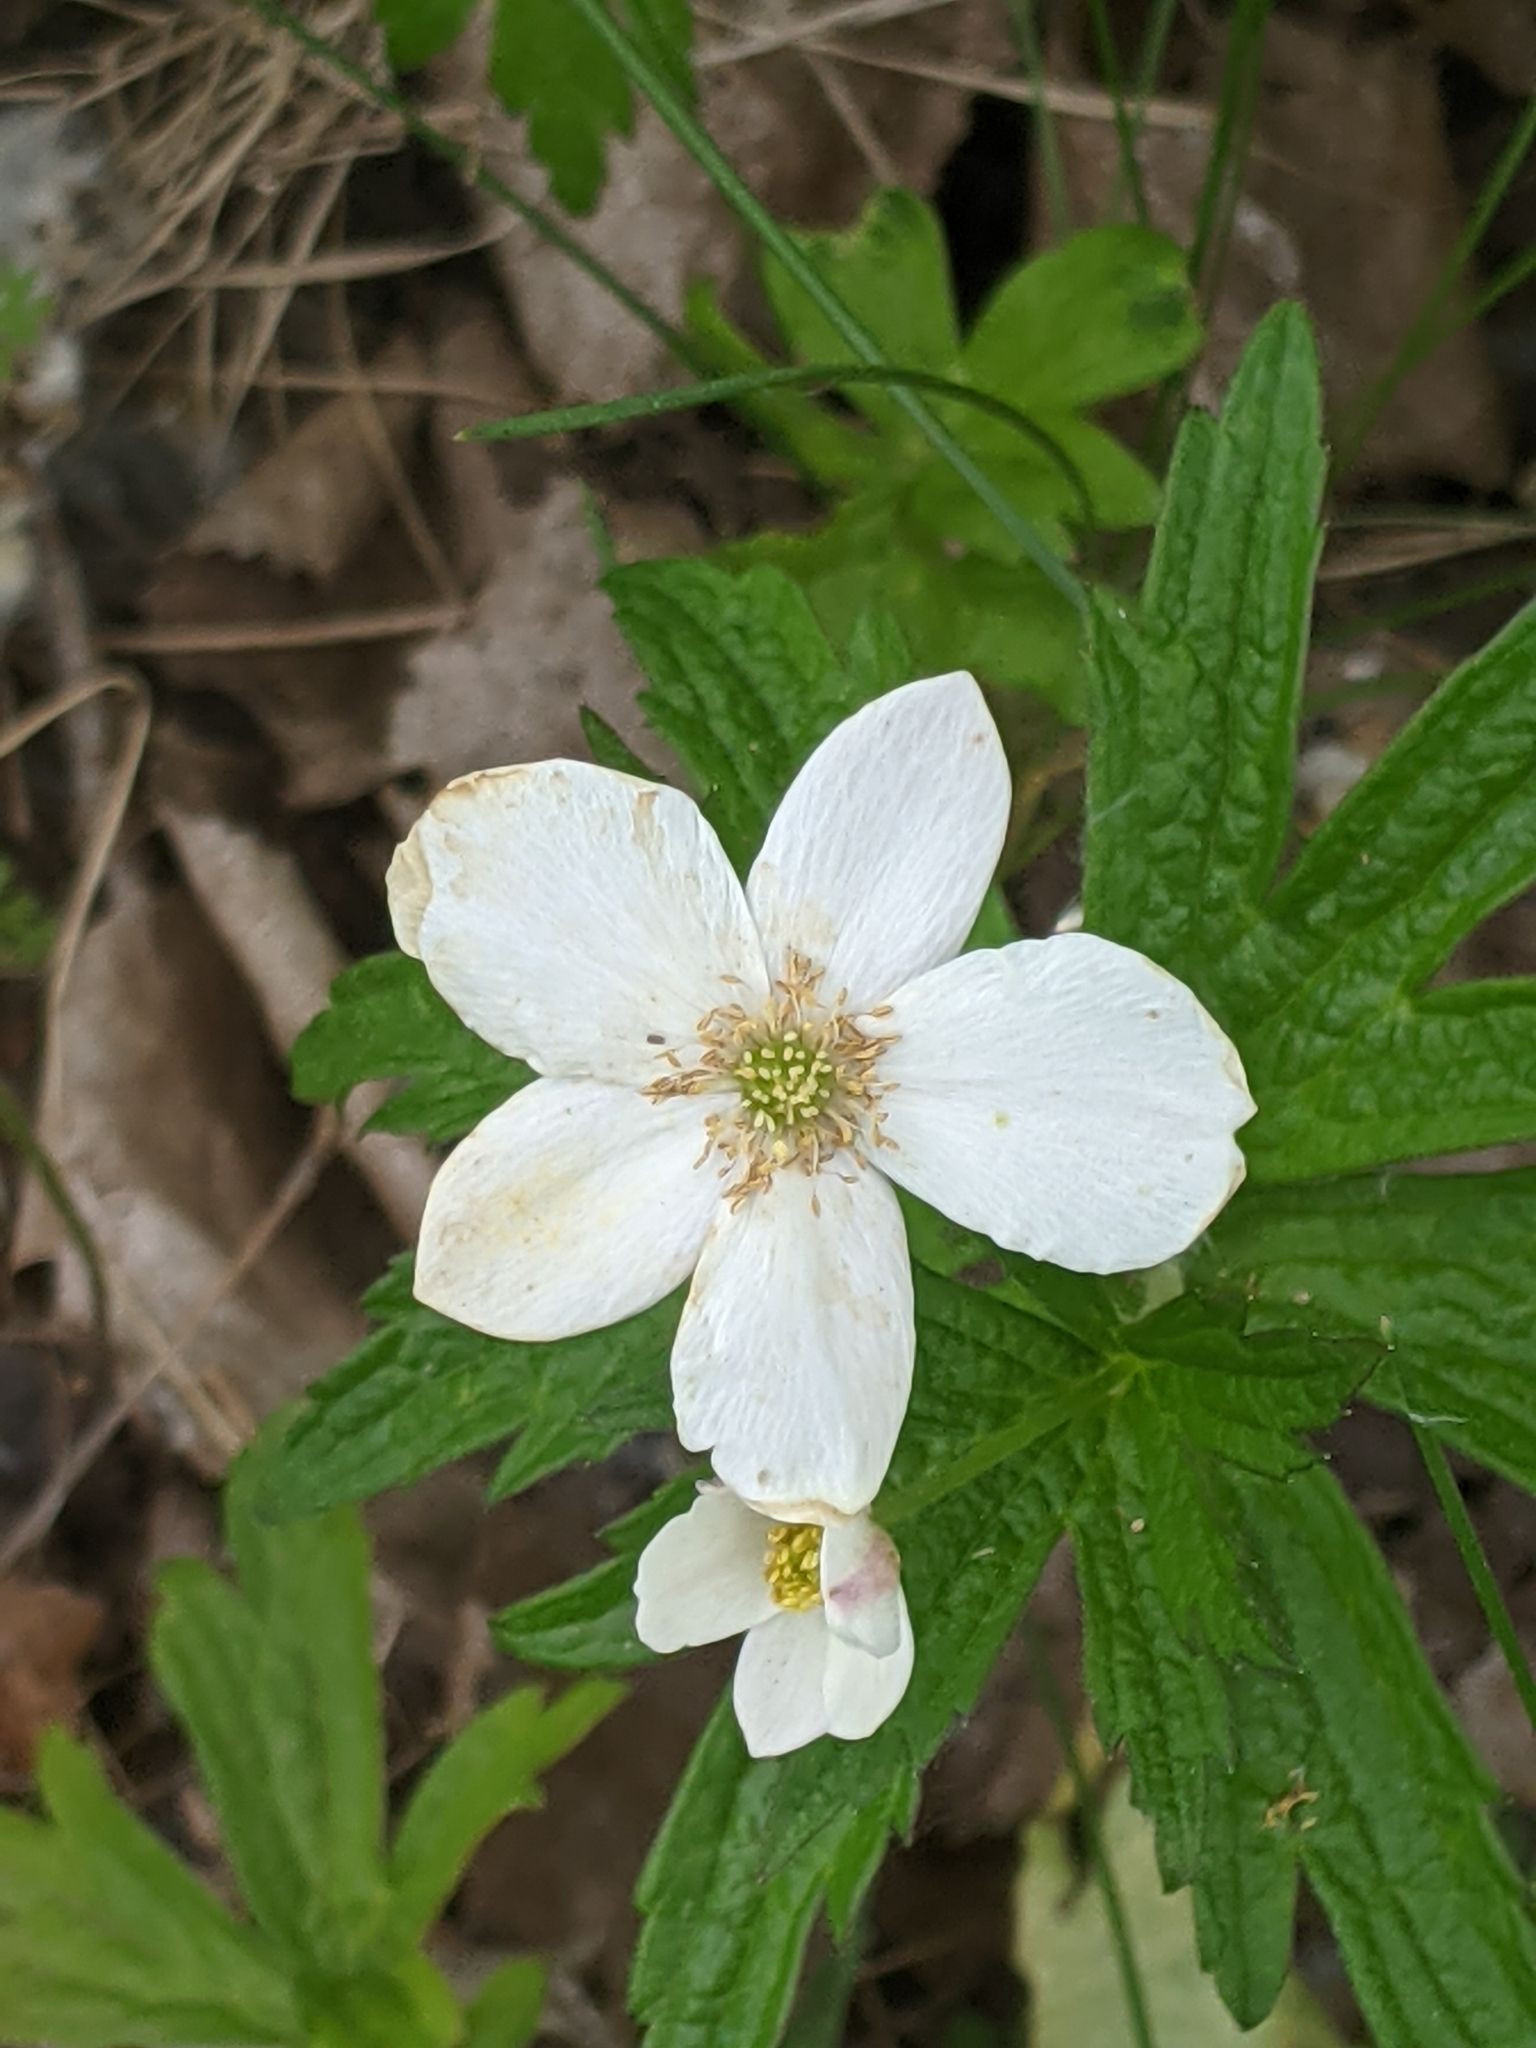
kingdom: Plantae
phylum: Tracheophyta
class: Magnoliopsida
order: Ranunculales
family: Ranunculaceae
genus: Anemonastrum
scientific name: Anemonastrum canadense
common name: Canada anemone
